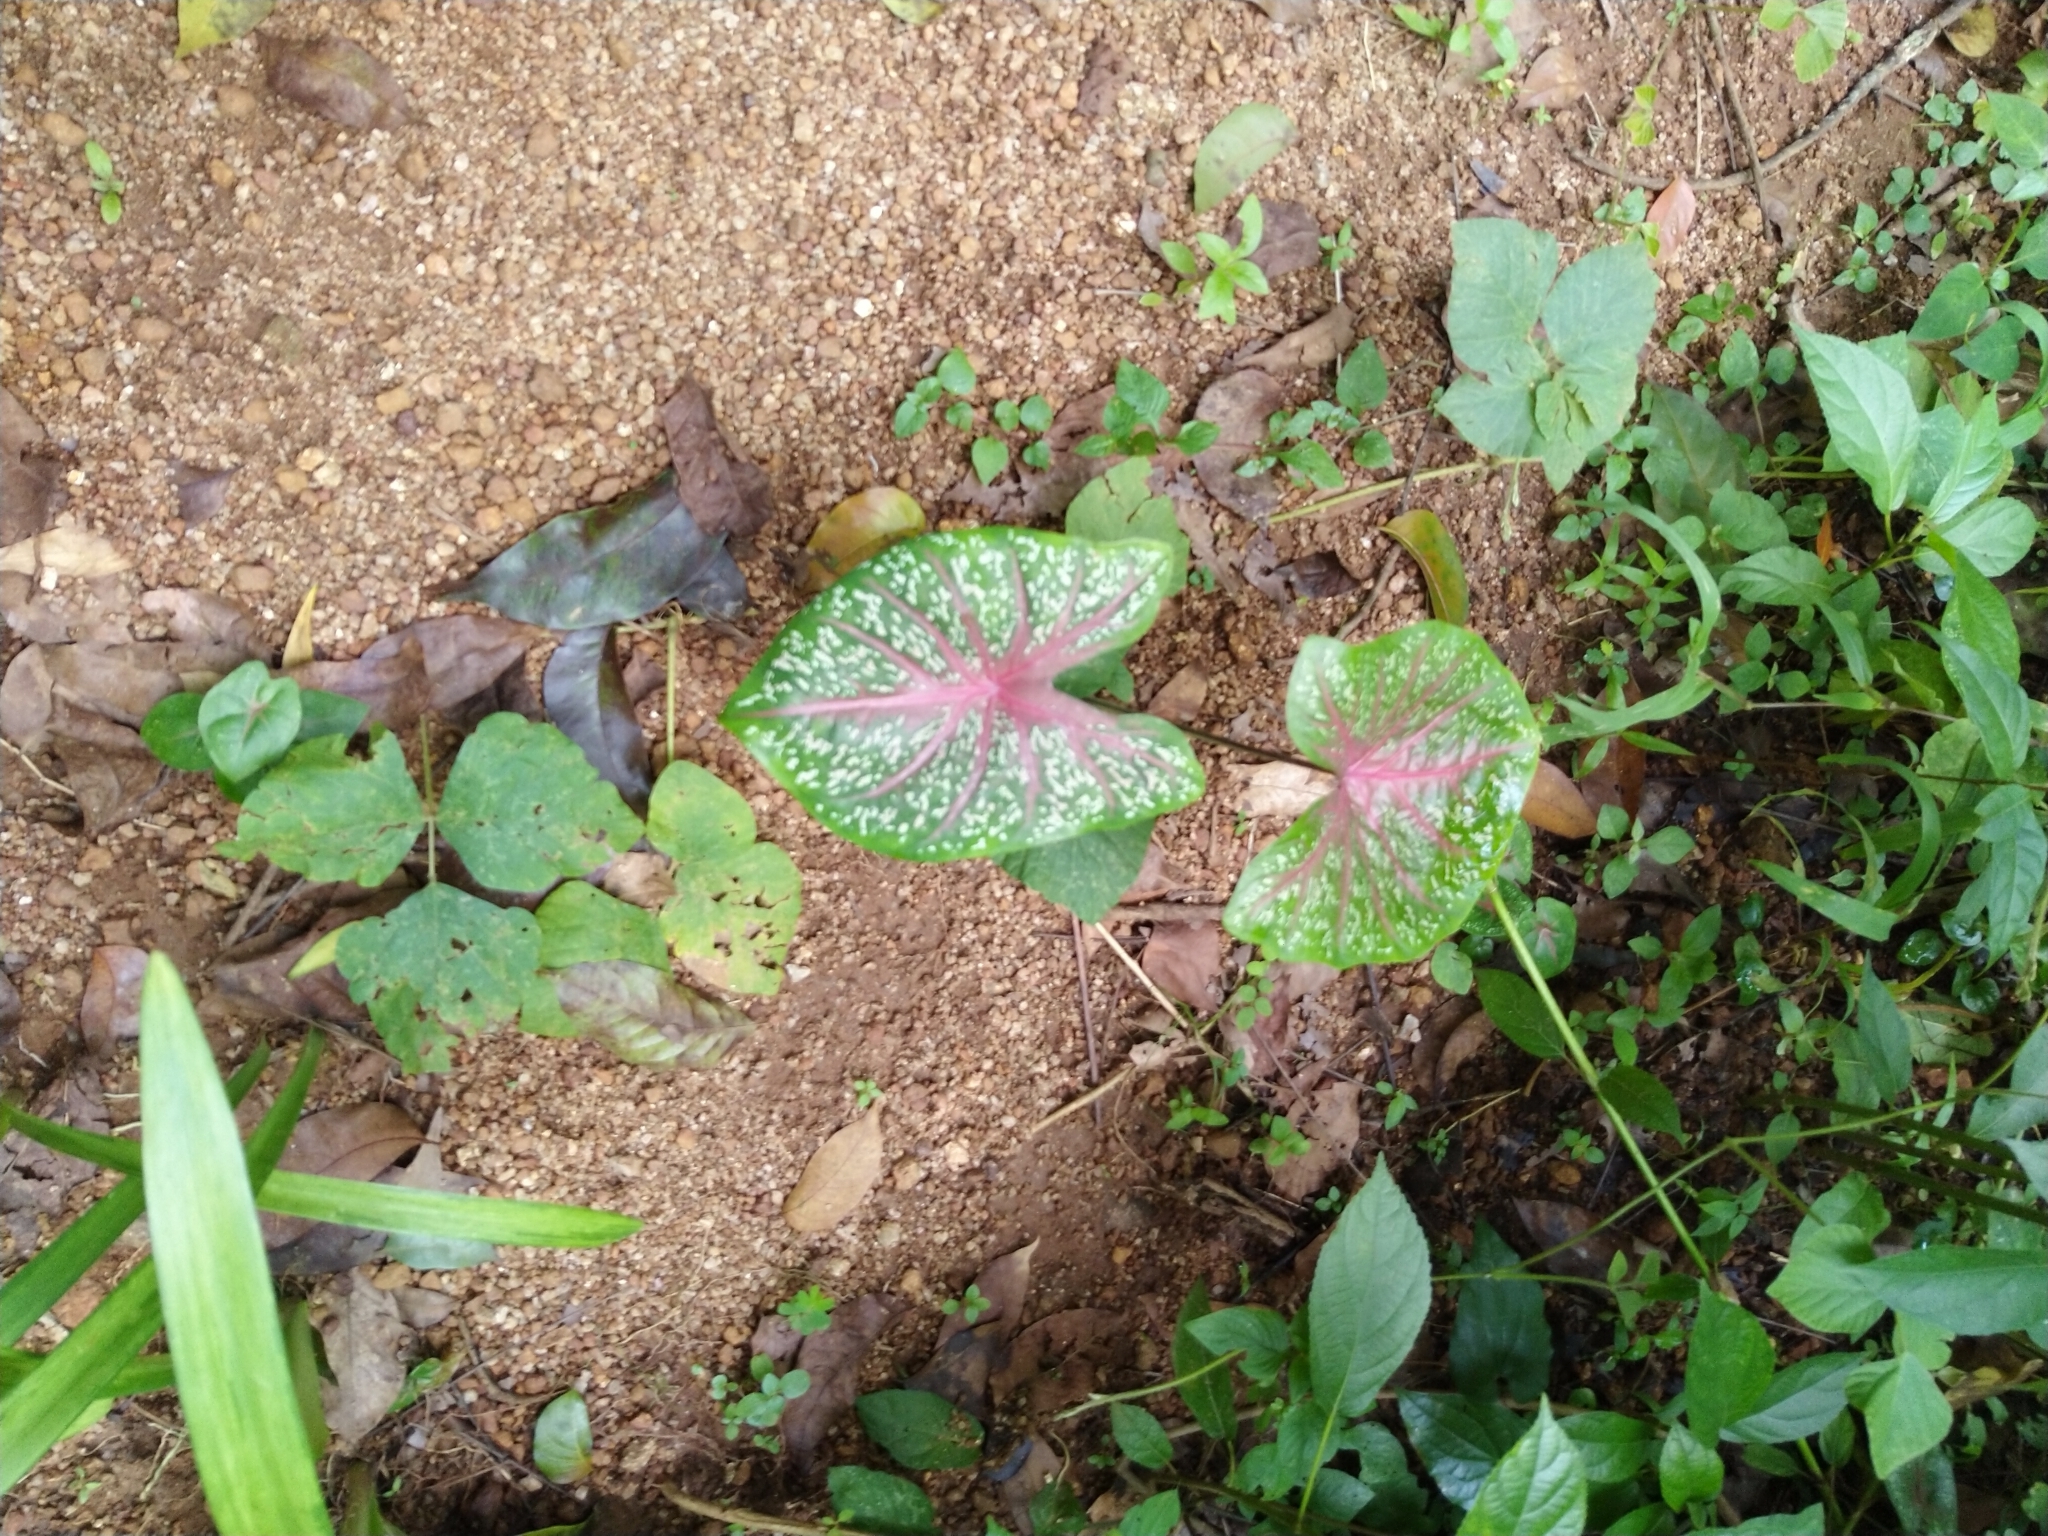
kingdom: Plantae
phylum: Tracheophyta
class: Liliopsida
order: Alismatales
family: Araceae
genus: Caladium
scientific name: Caladium bicolor
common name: Artist's pallet
